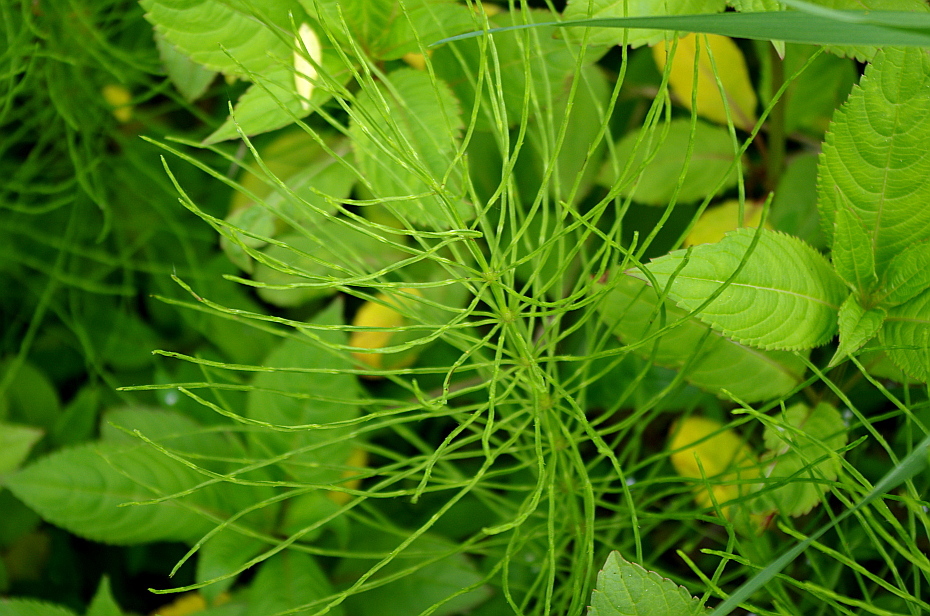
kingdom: Plantae
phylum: Tracheophyta
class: Polypodiopsida
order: Equisetales
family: Equisetaceae
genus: Equisetum
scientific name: Equisetum arvense
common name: Field horsetail
